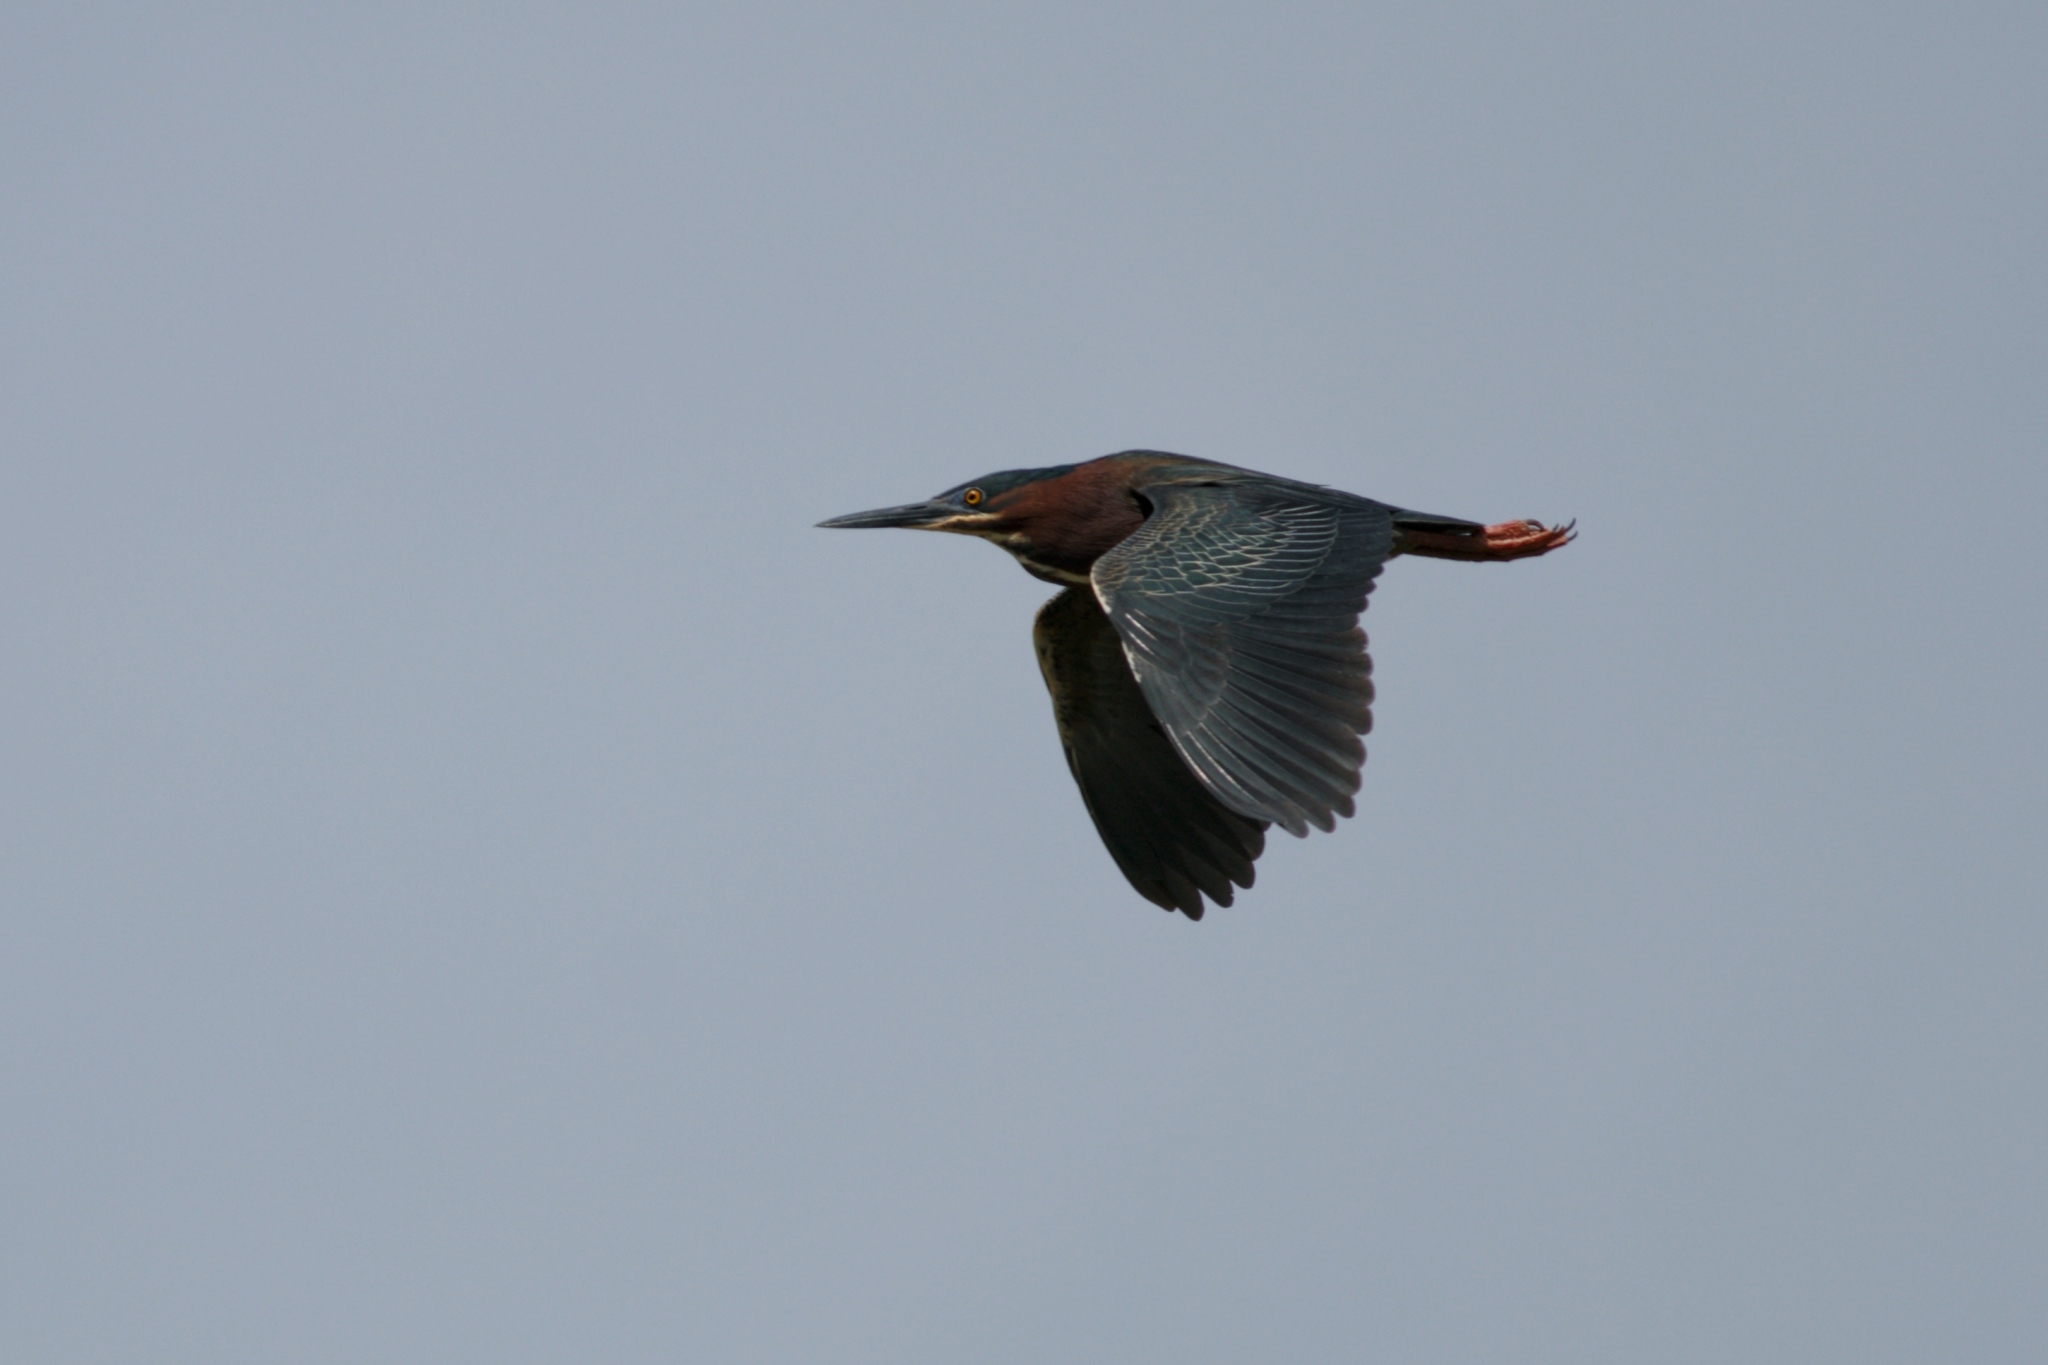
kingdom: Animalia
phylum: Chordata
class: Aves
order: Pelecaniformes
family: Ardeidae
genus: Butorides
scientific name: Butorides virescens
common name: Green heron
